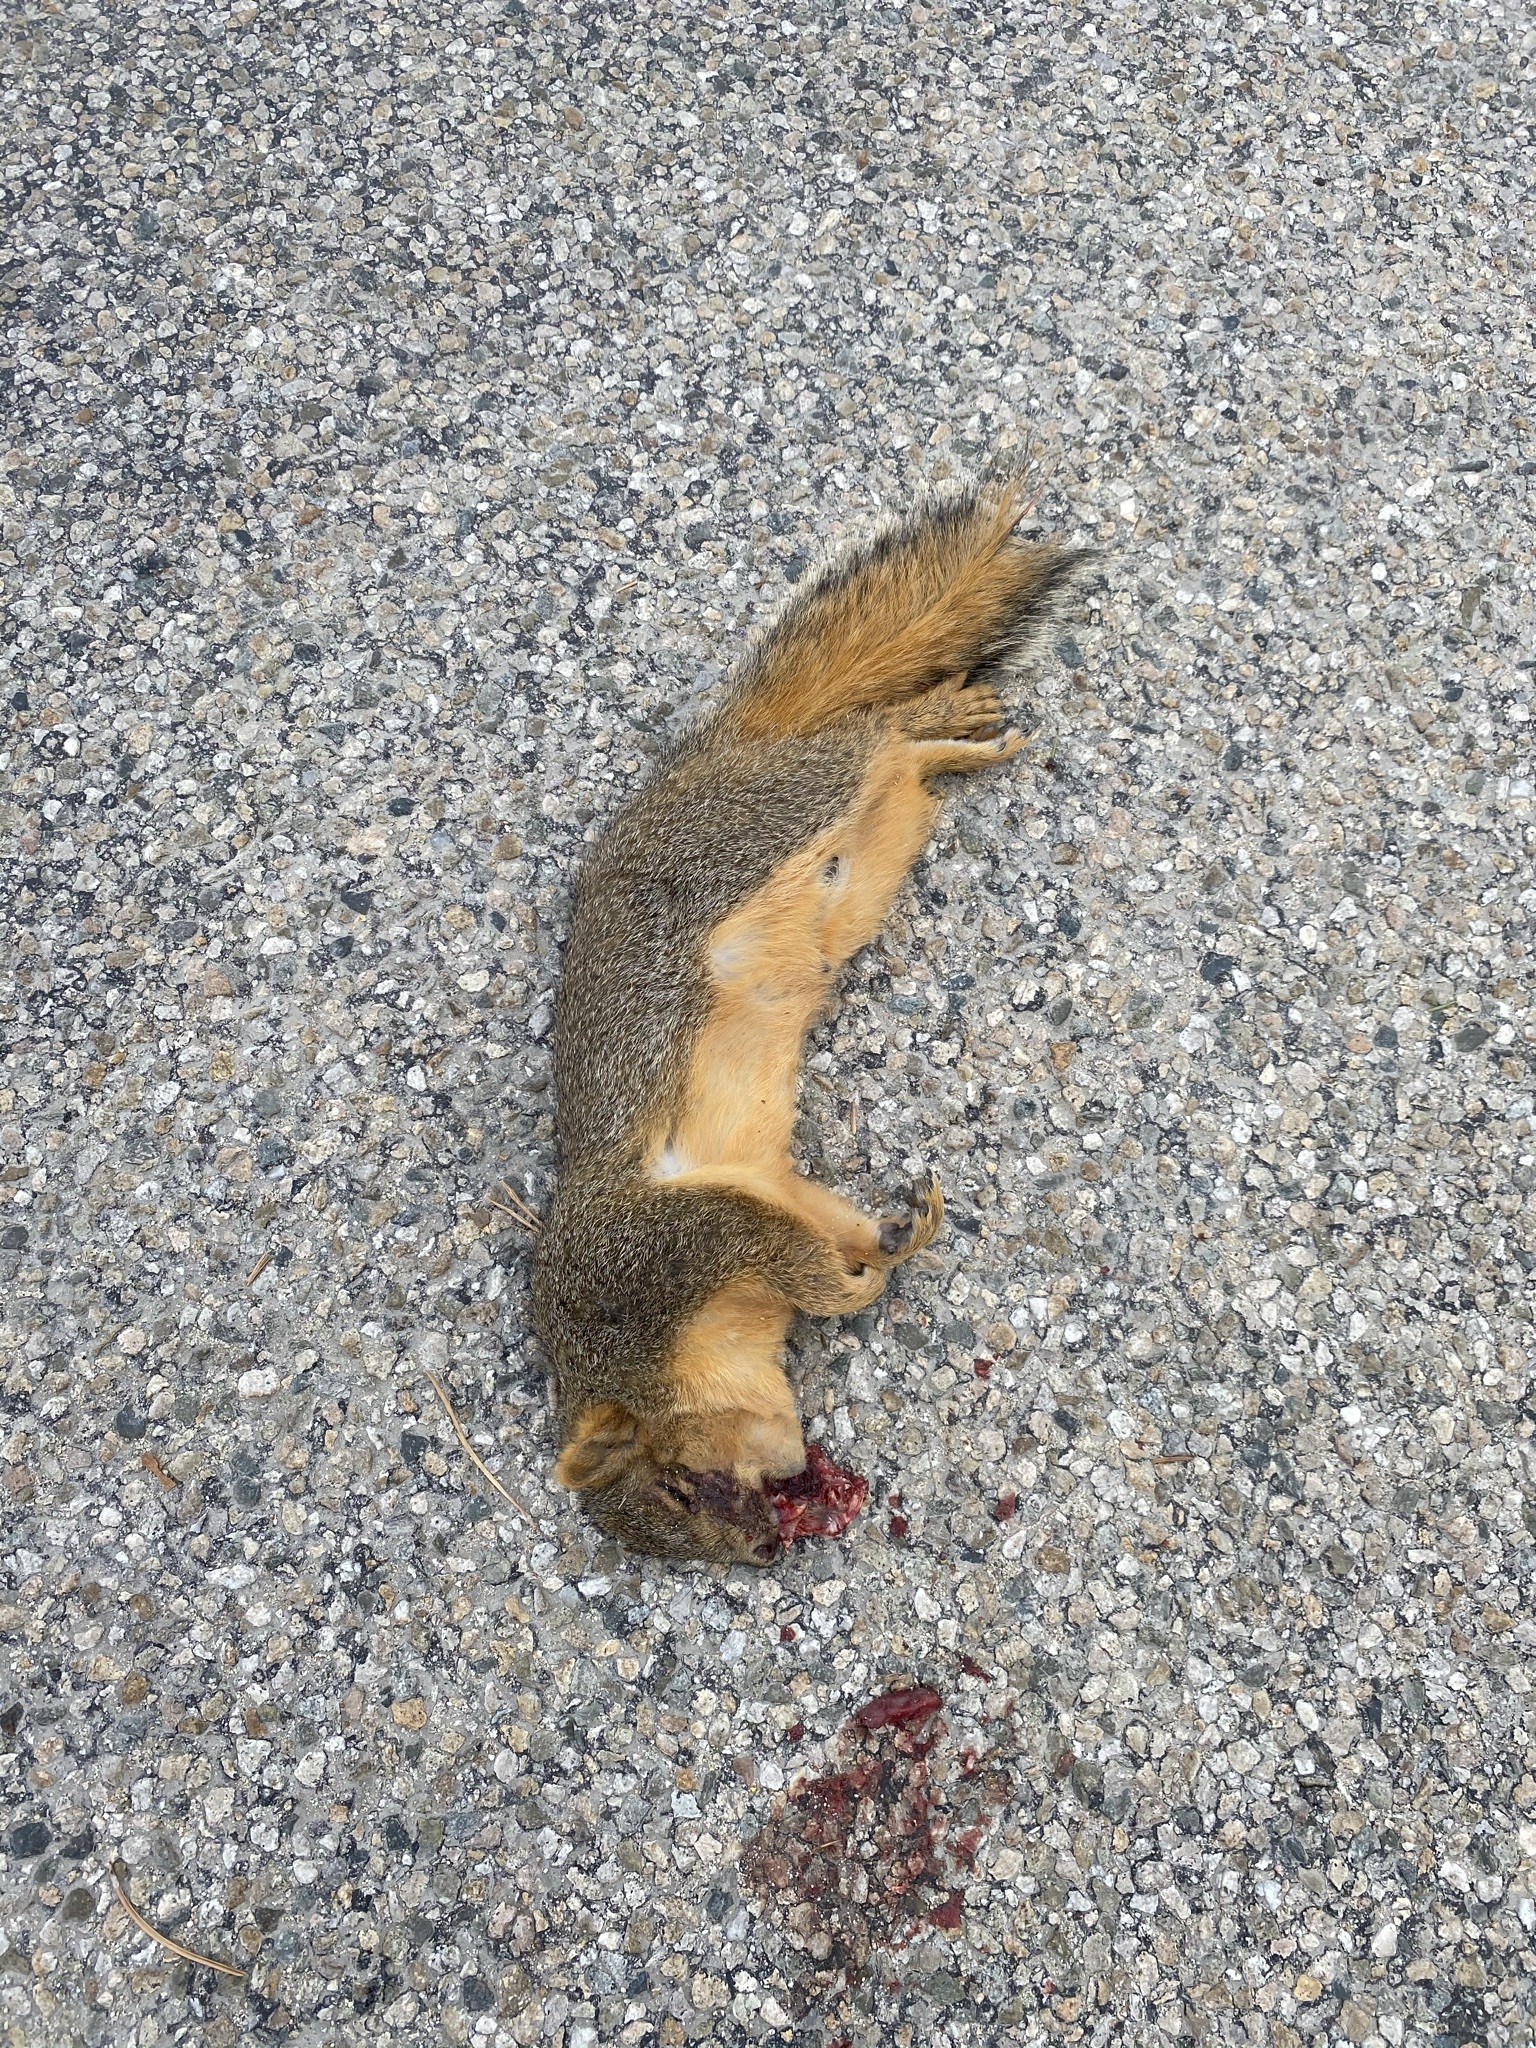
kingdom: Animalia
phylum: Chordata
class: Mammalia
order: Rodentia
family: Sciuridae
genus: Sciurus
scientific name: Sciurus niger
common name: Fox squirrel
